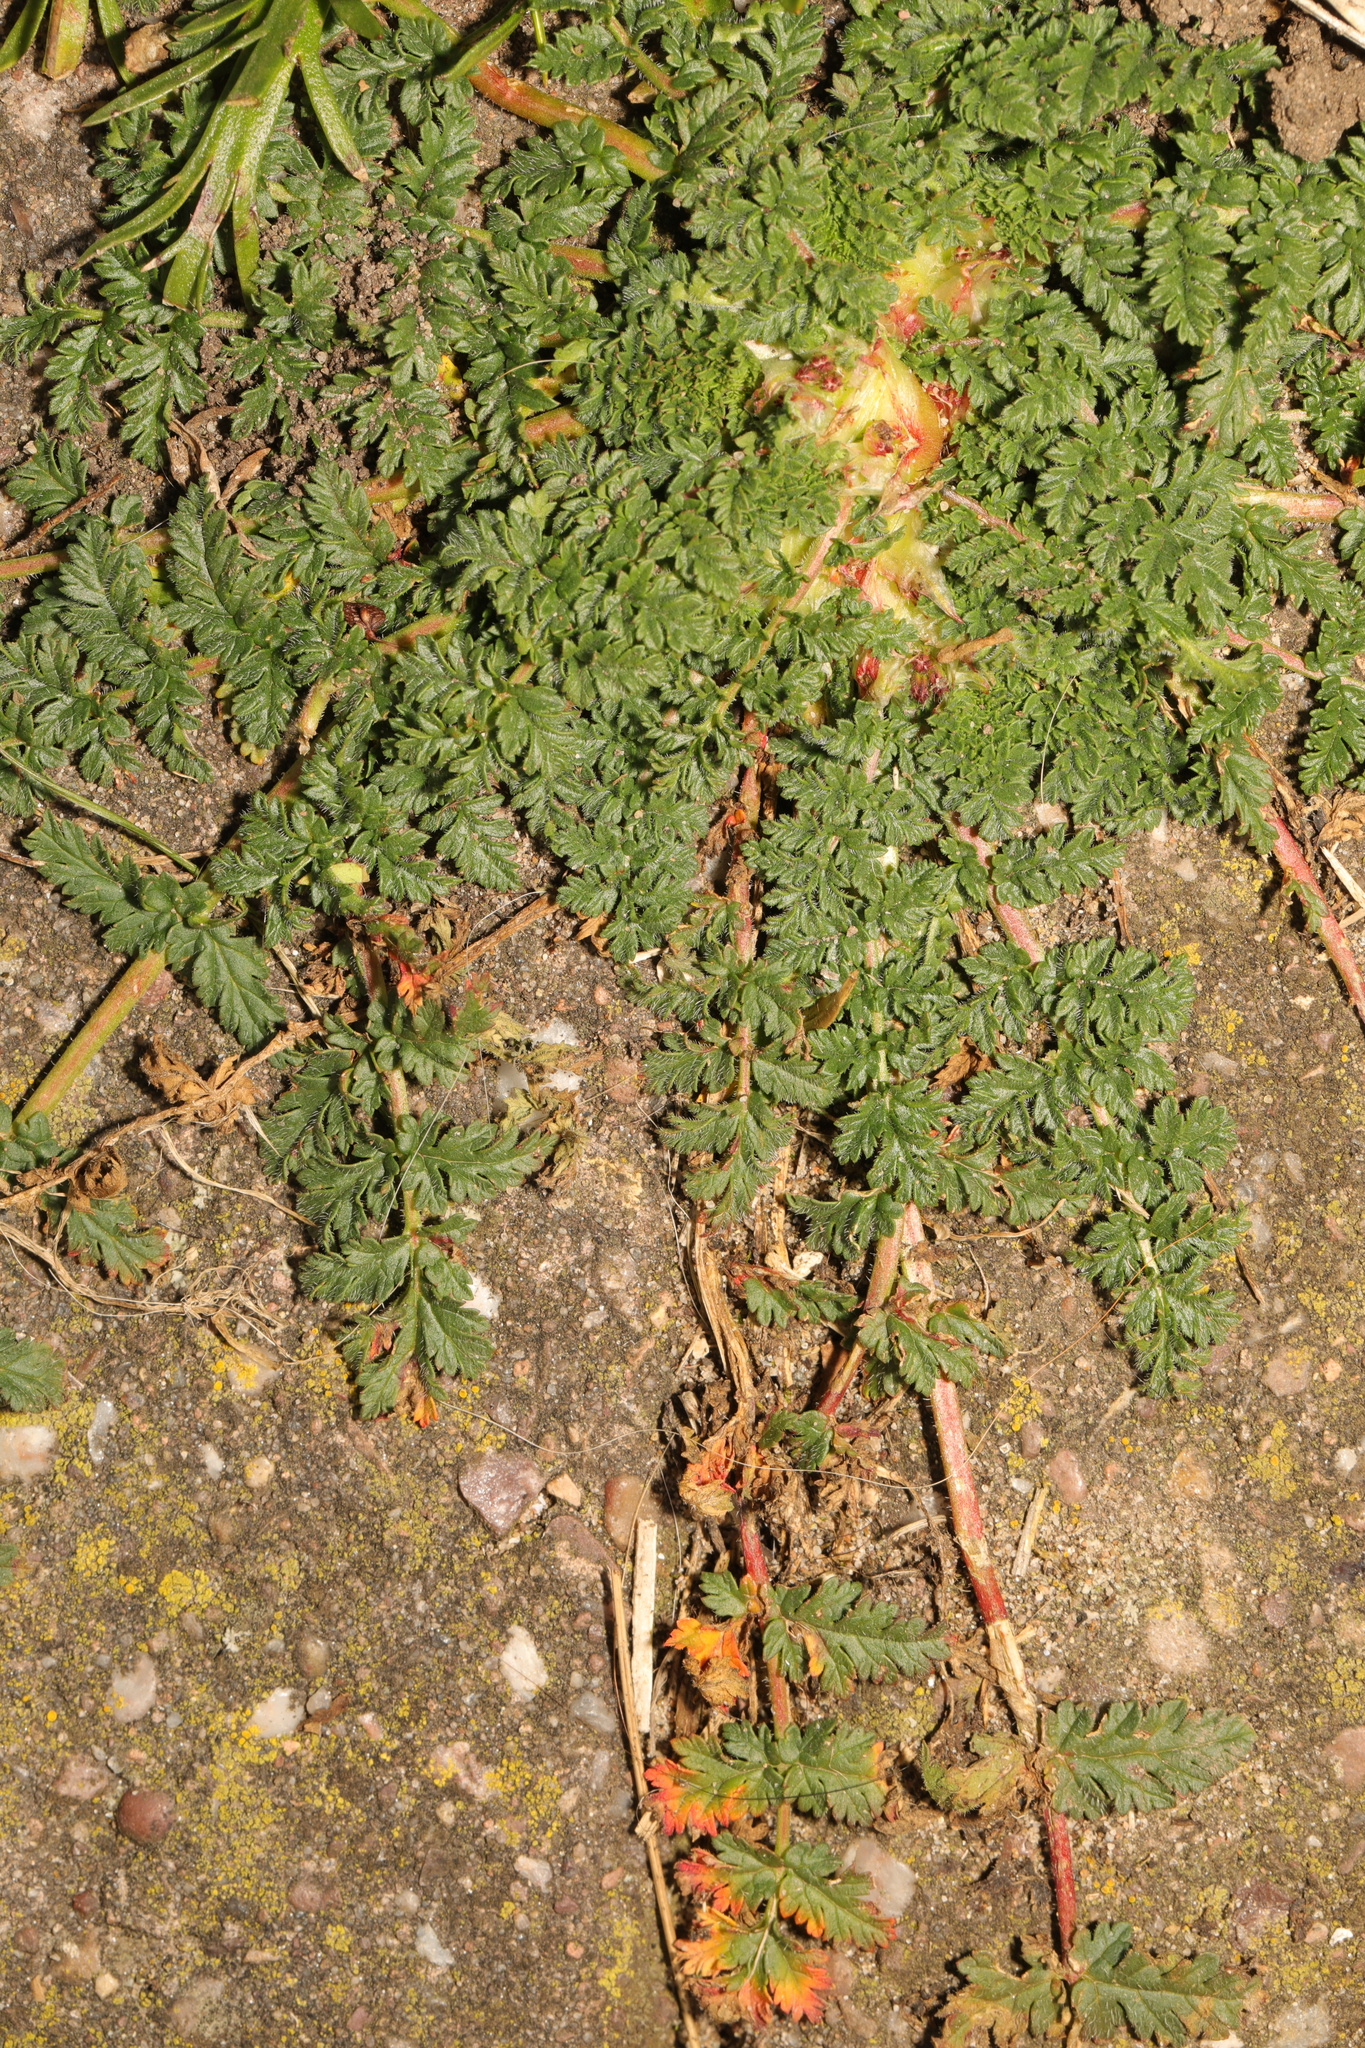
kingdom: Plantae
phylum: Tracheophyta
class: Magnoliopsida
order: Geraniales
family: Geraniaceae
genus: Erodium
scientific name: Erodium cicutarium
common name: Common stork's-bill
